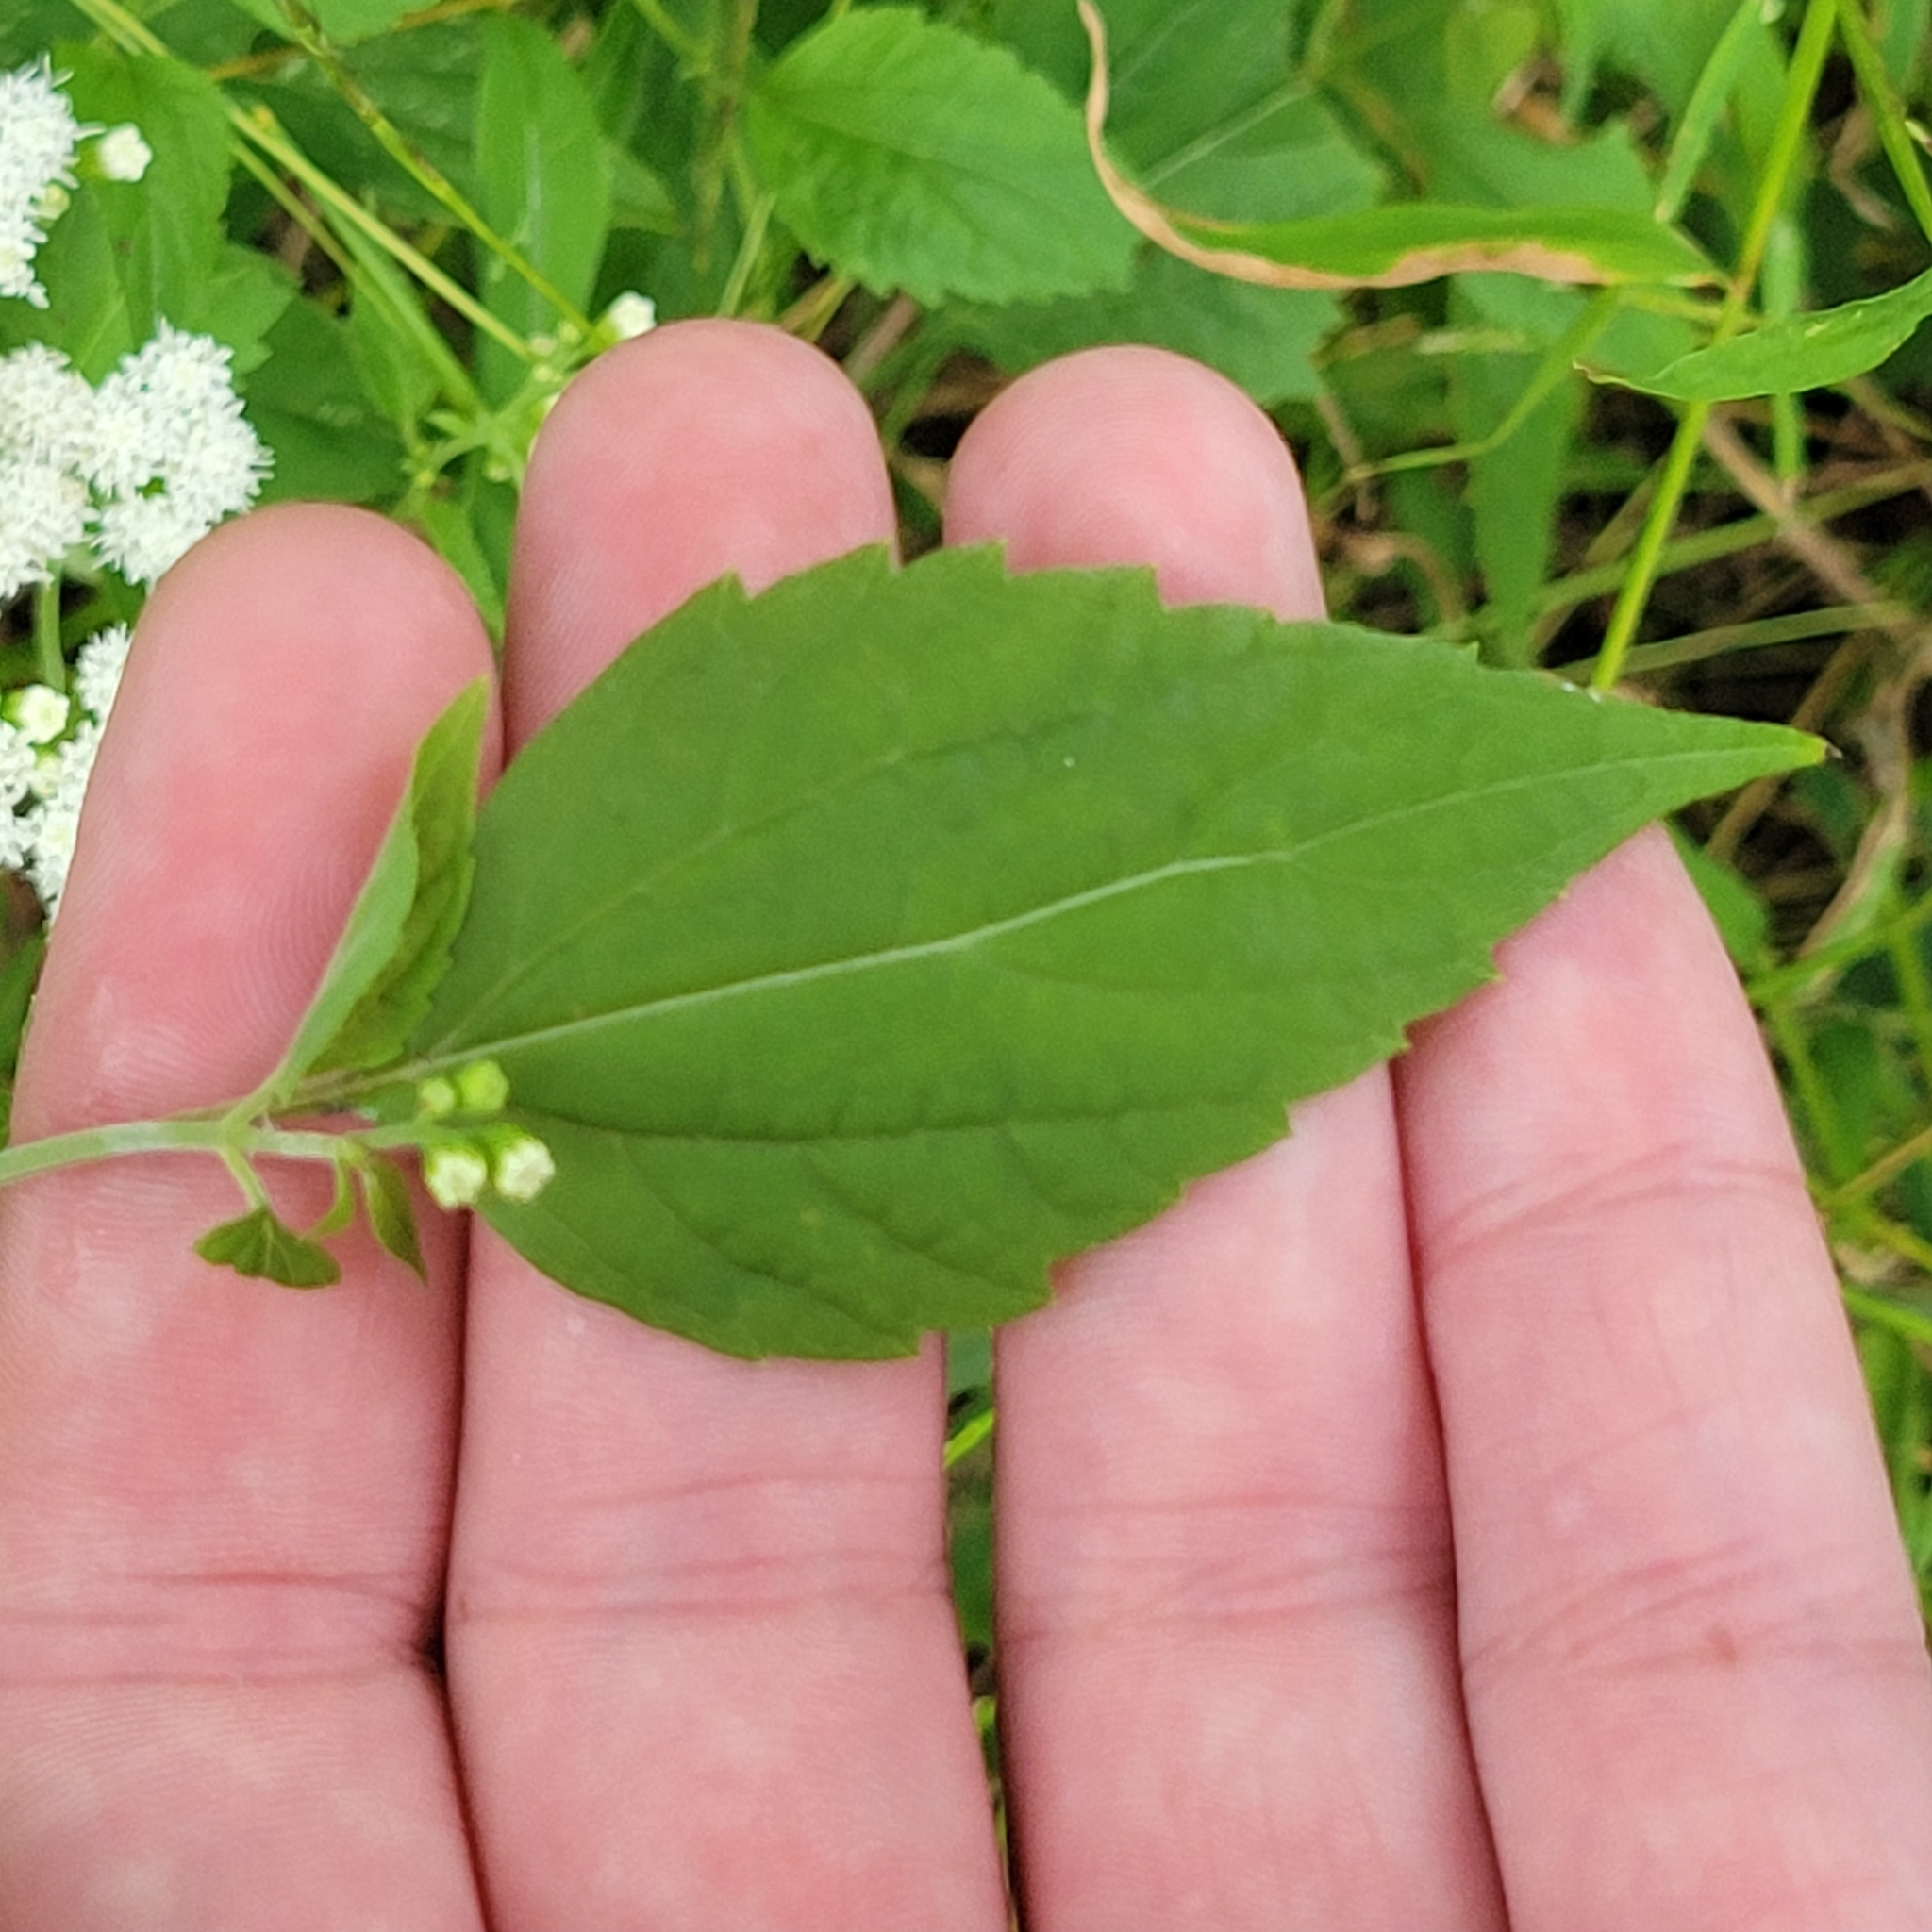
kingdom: Plantae
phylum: Tracheophyta
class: Magnoliopsida
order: Asterales
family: Asteraceae
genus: Ageratina
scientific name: Ageratina altissima
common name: White snakeroot
